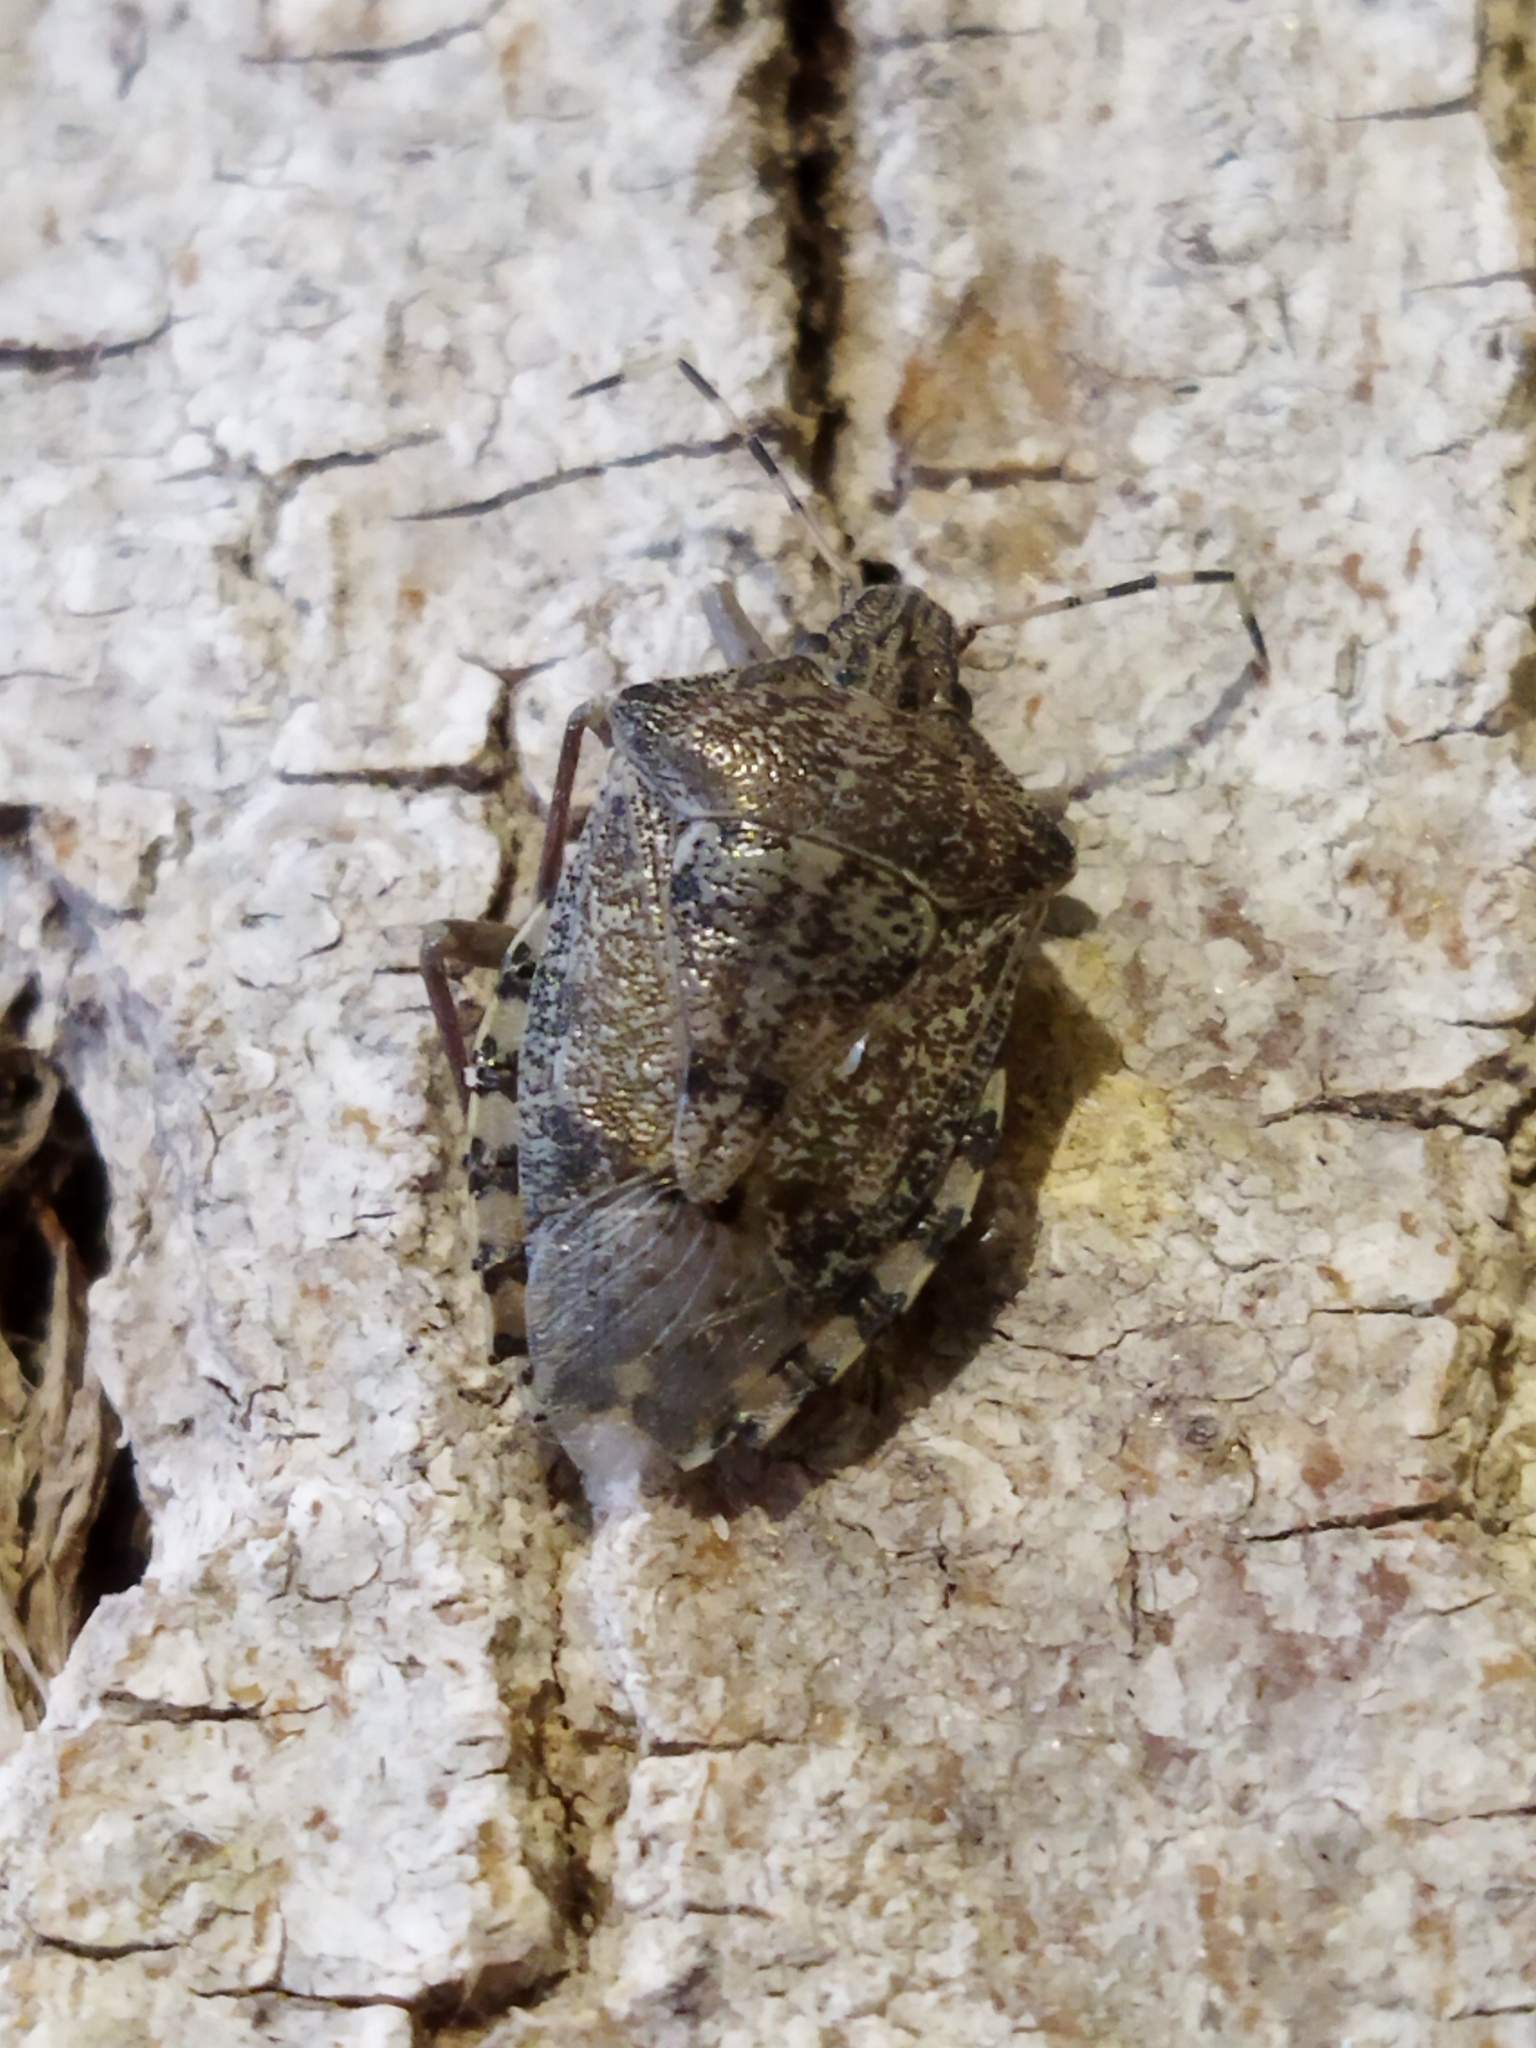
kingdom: Animalia
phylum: Arthropoda
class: Insecta
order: Hemiptera
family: Pentatomidae
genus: Rhaphigaster
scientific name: Rhaphigaster nebulosa
